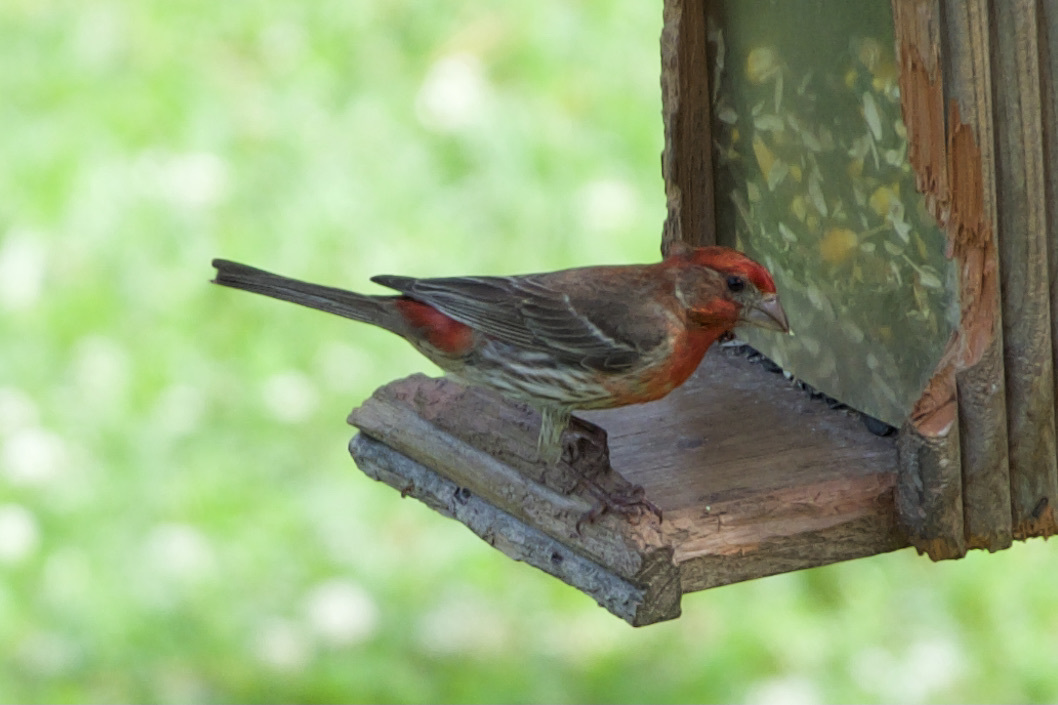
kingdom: Animalia
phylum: Chordata
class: Aves
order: Passeriformes
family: Fringillidae
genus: Haemorhous
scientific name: Haemorhous mexicanus
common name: House finch
